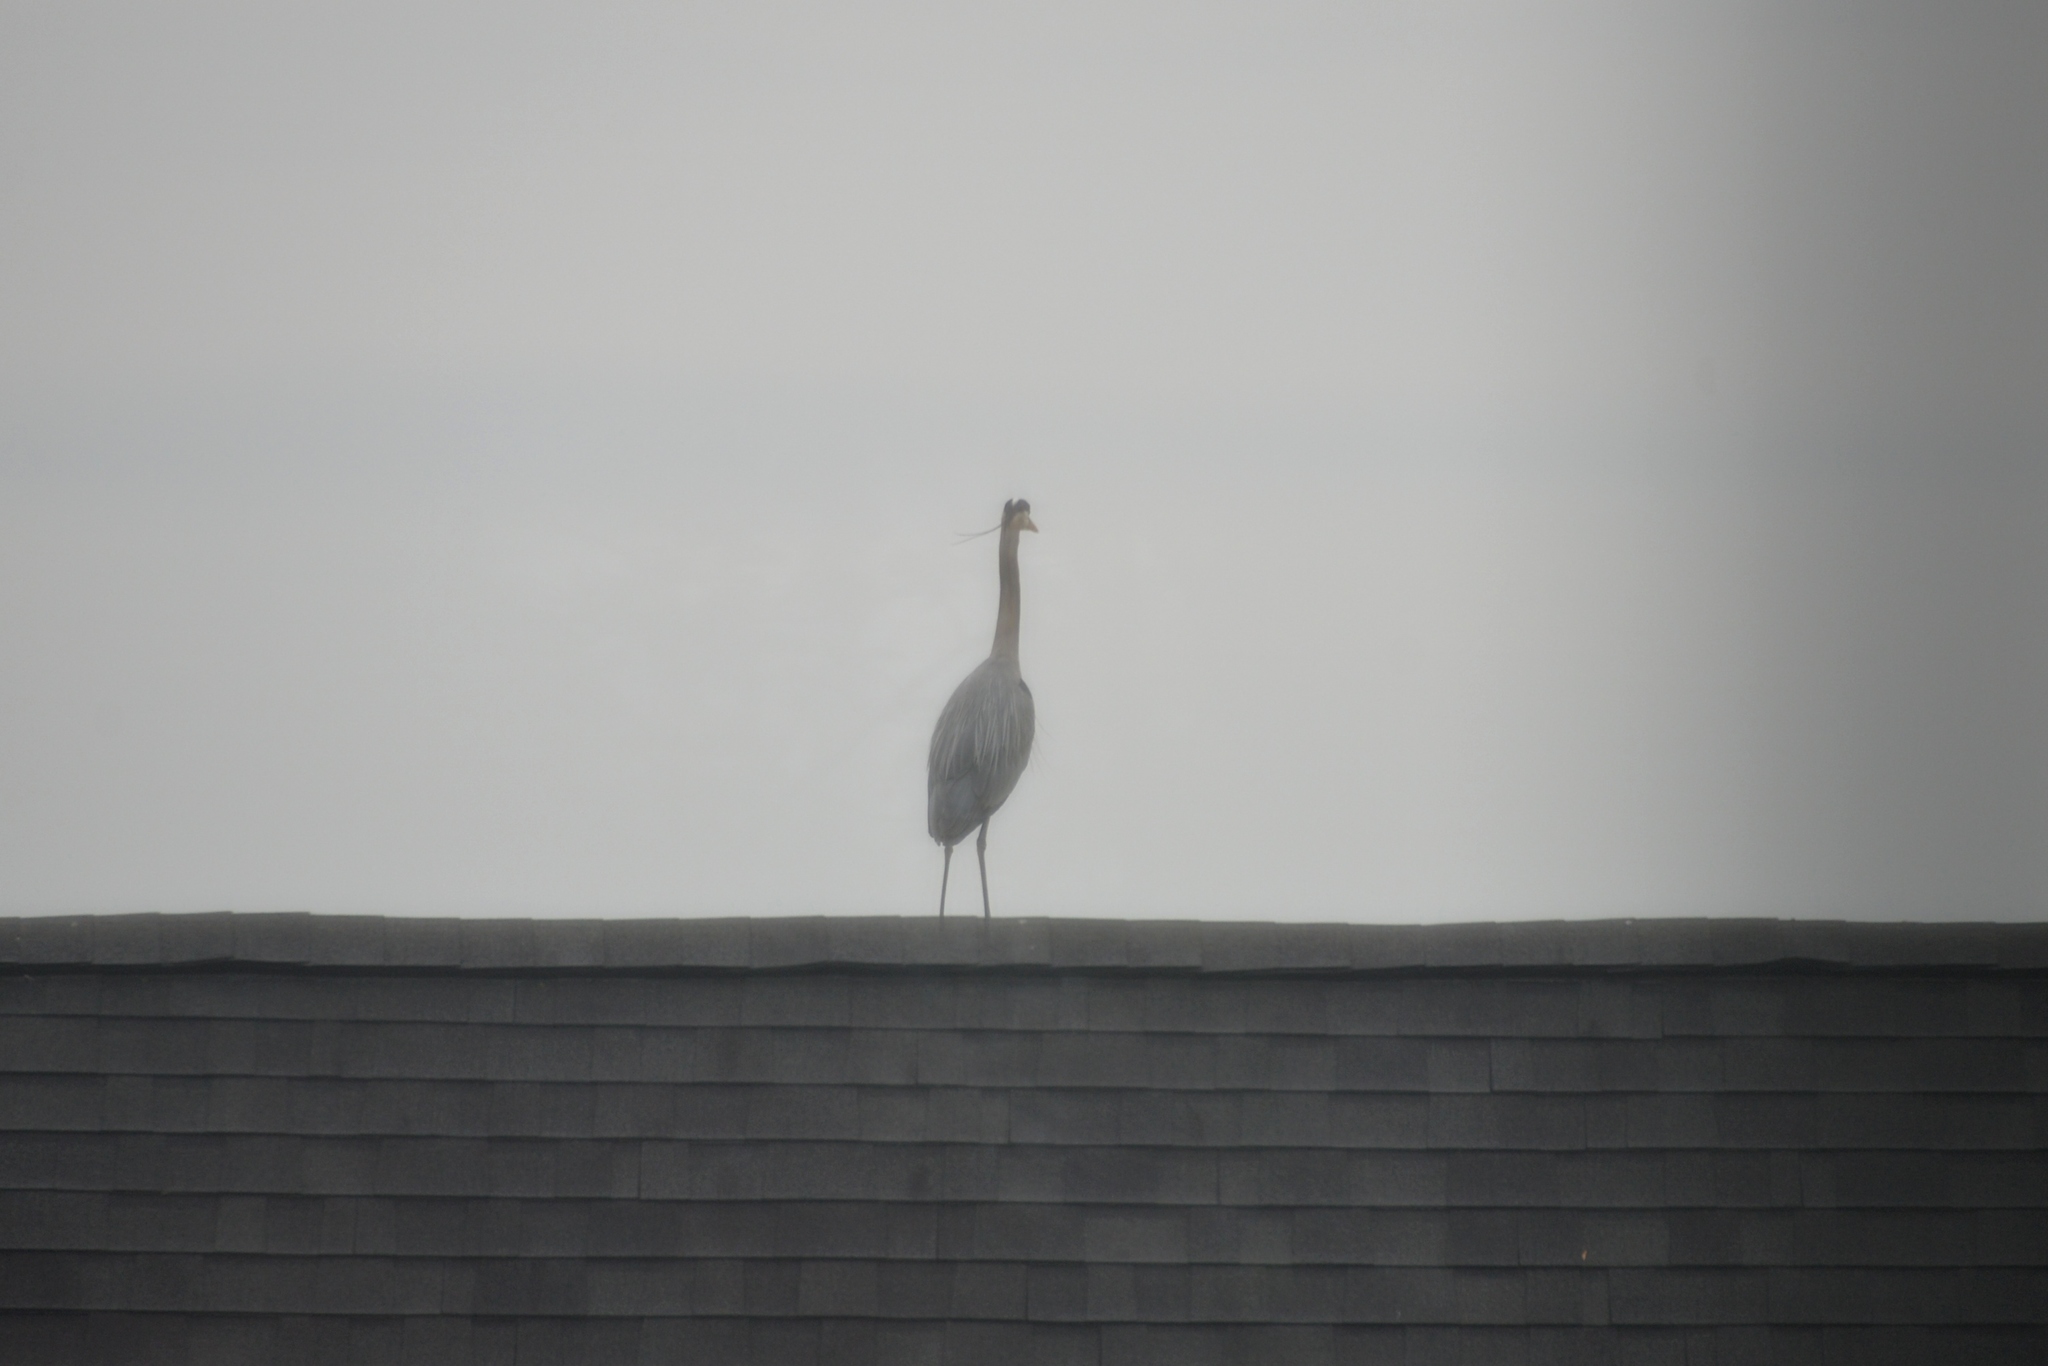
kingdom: Animalia
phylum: Chordata
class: Aves
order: Pelecaniformes
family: Ardeidae
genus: Ardea
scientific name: Ardea herodias
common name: Great blue heron
